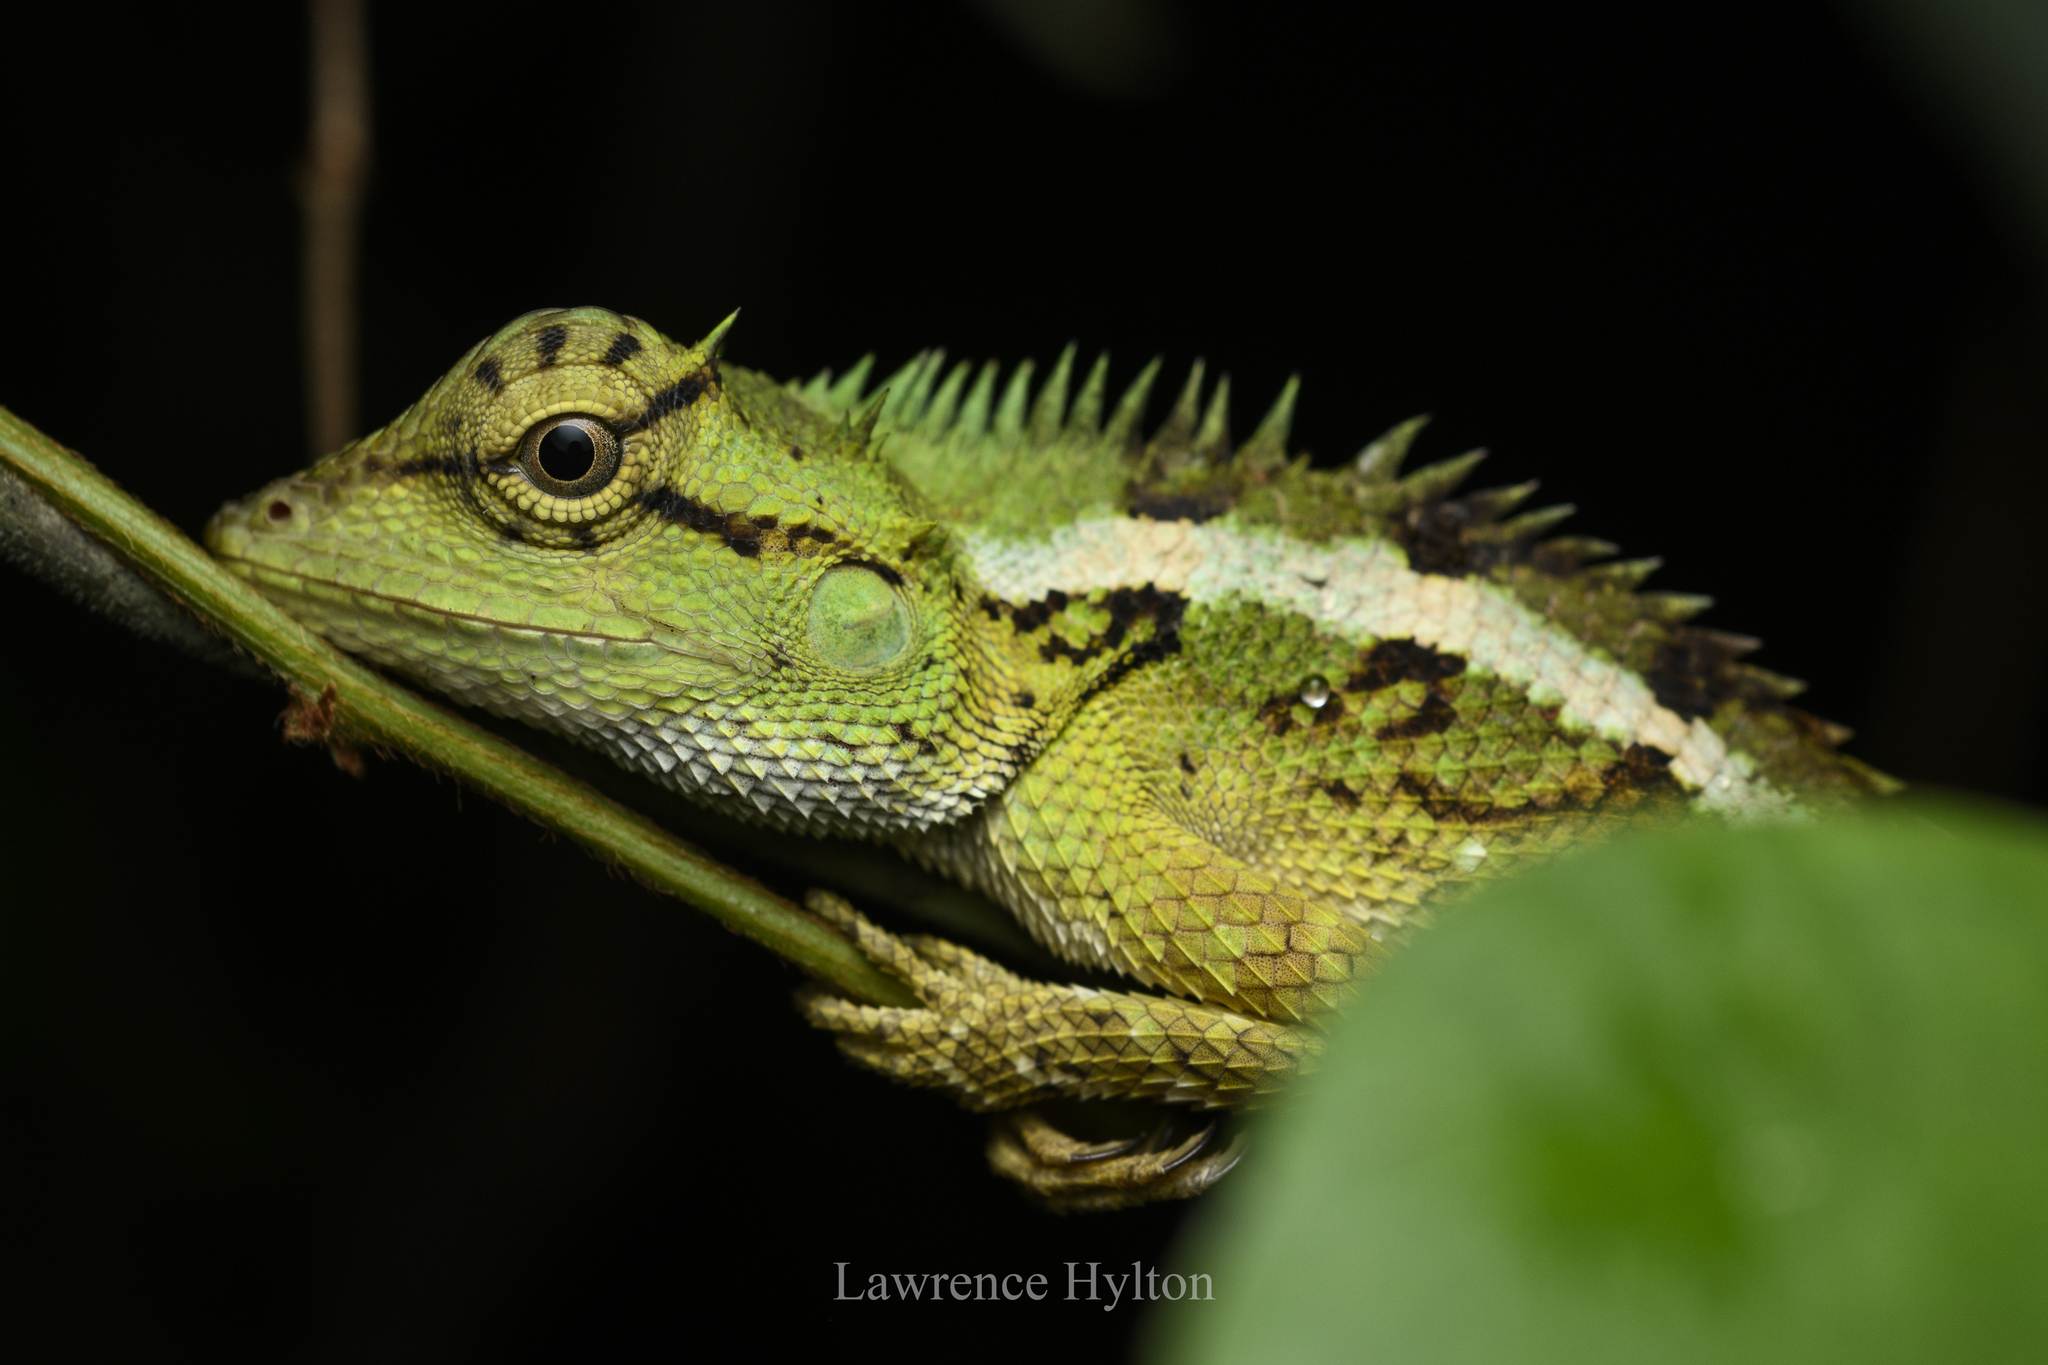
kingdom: Animalia
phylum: Chordata
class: Squamata
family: Agamidae
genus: Calotes
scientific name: Calotes emma
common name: Thailand bloodsucker
